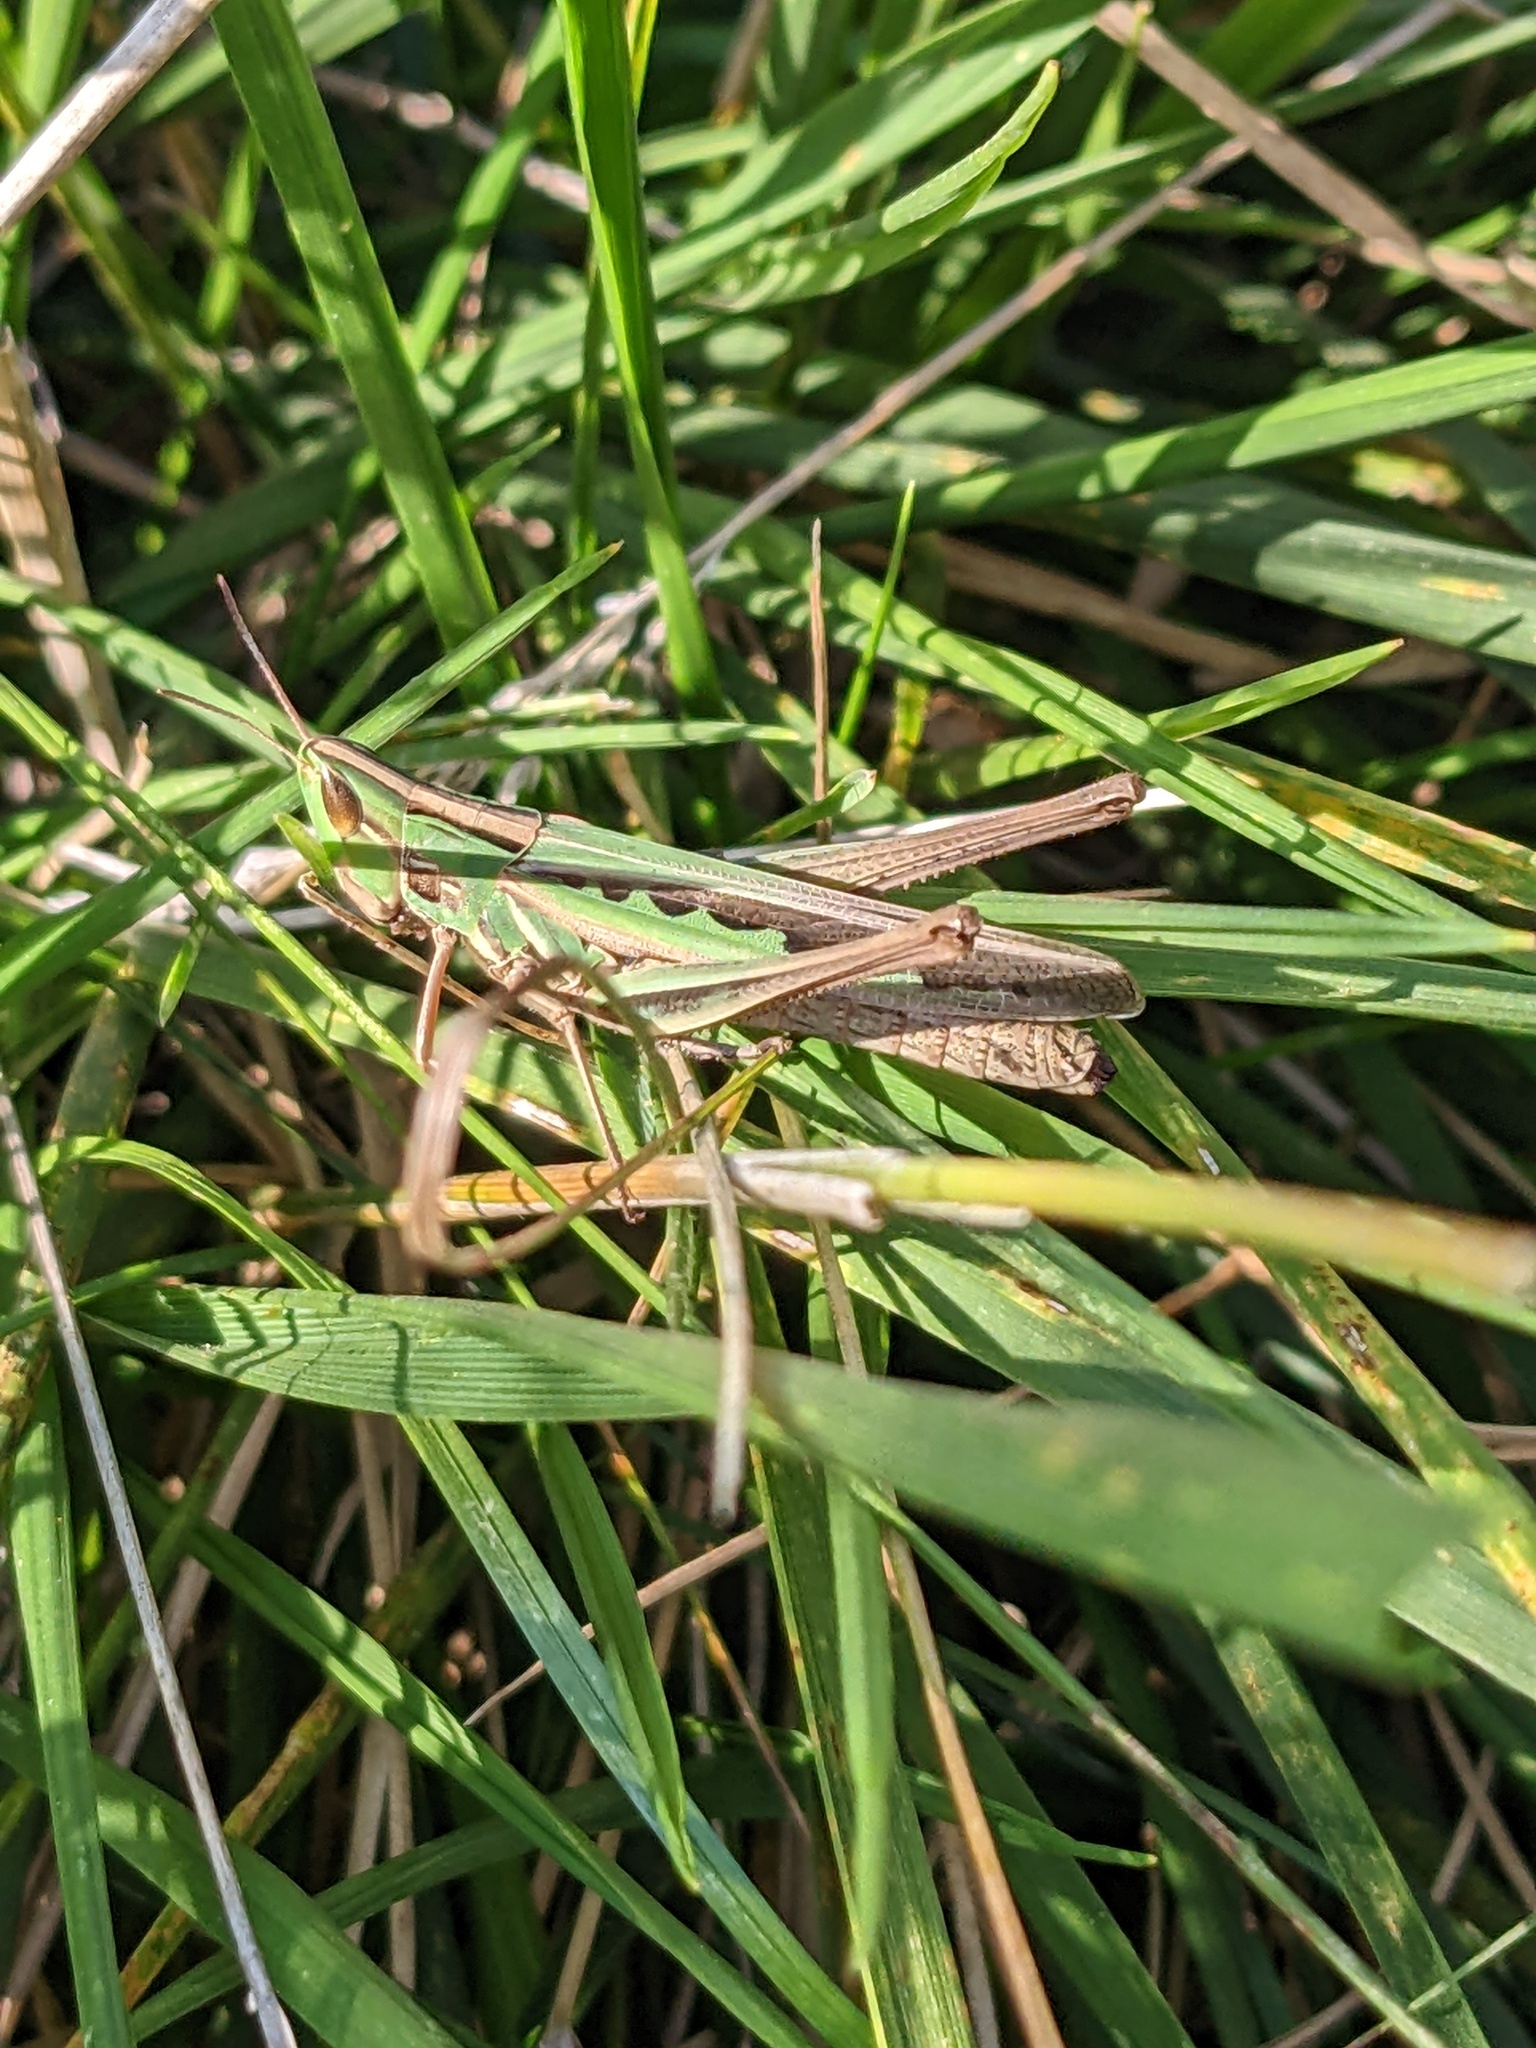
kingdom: Animalia
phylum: Arthropoda
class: Insecta
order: Orthoptera
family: Acrididae
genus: Syrbula
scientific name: Syrbula admirabilis
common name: Handsome grasshopper
